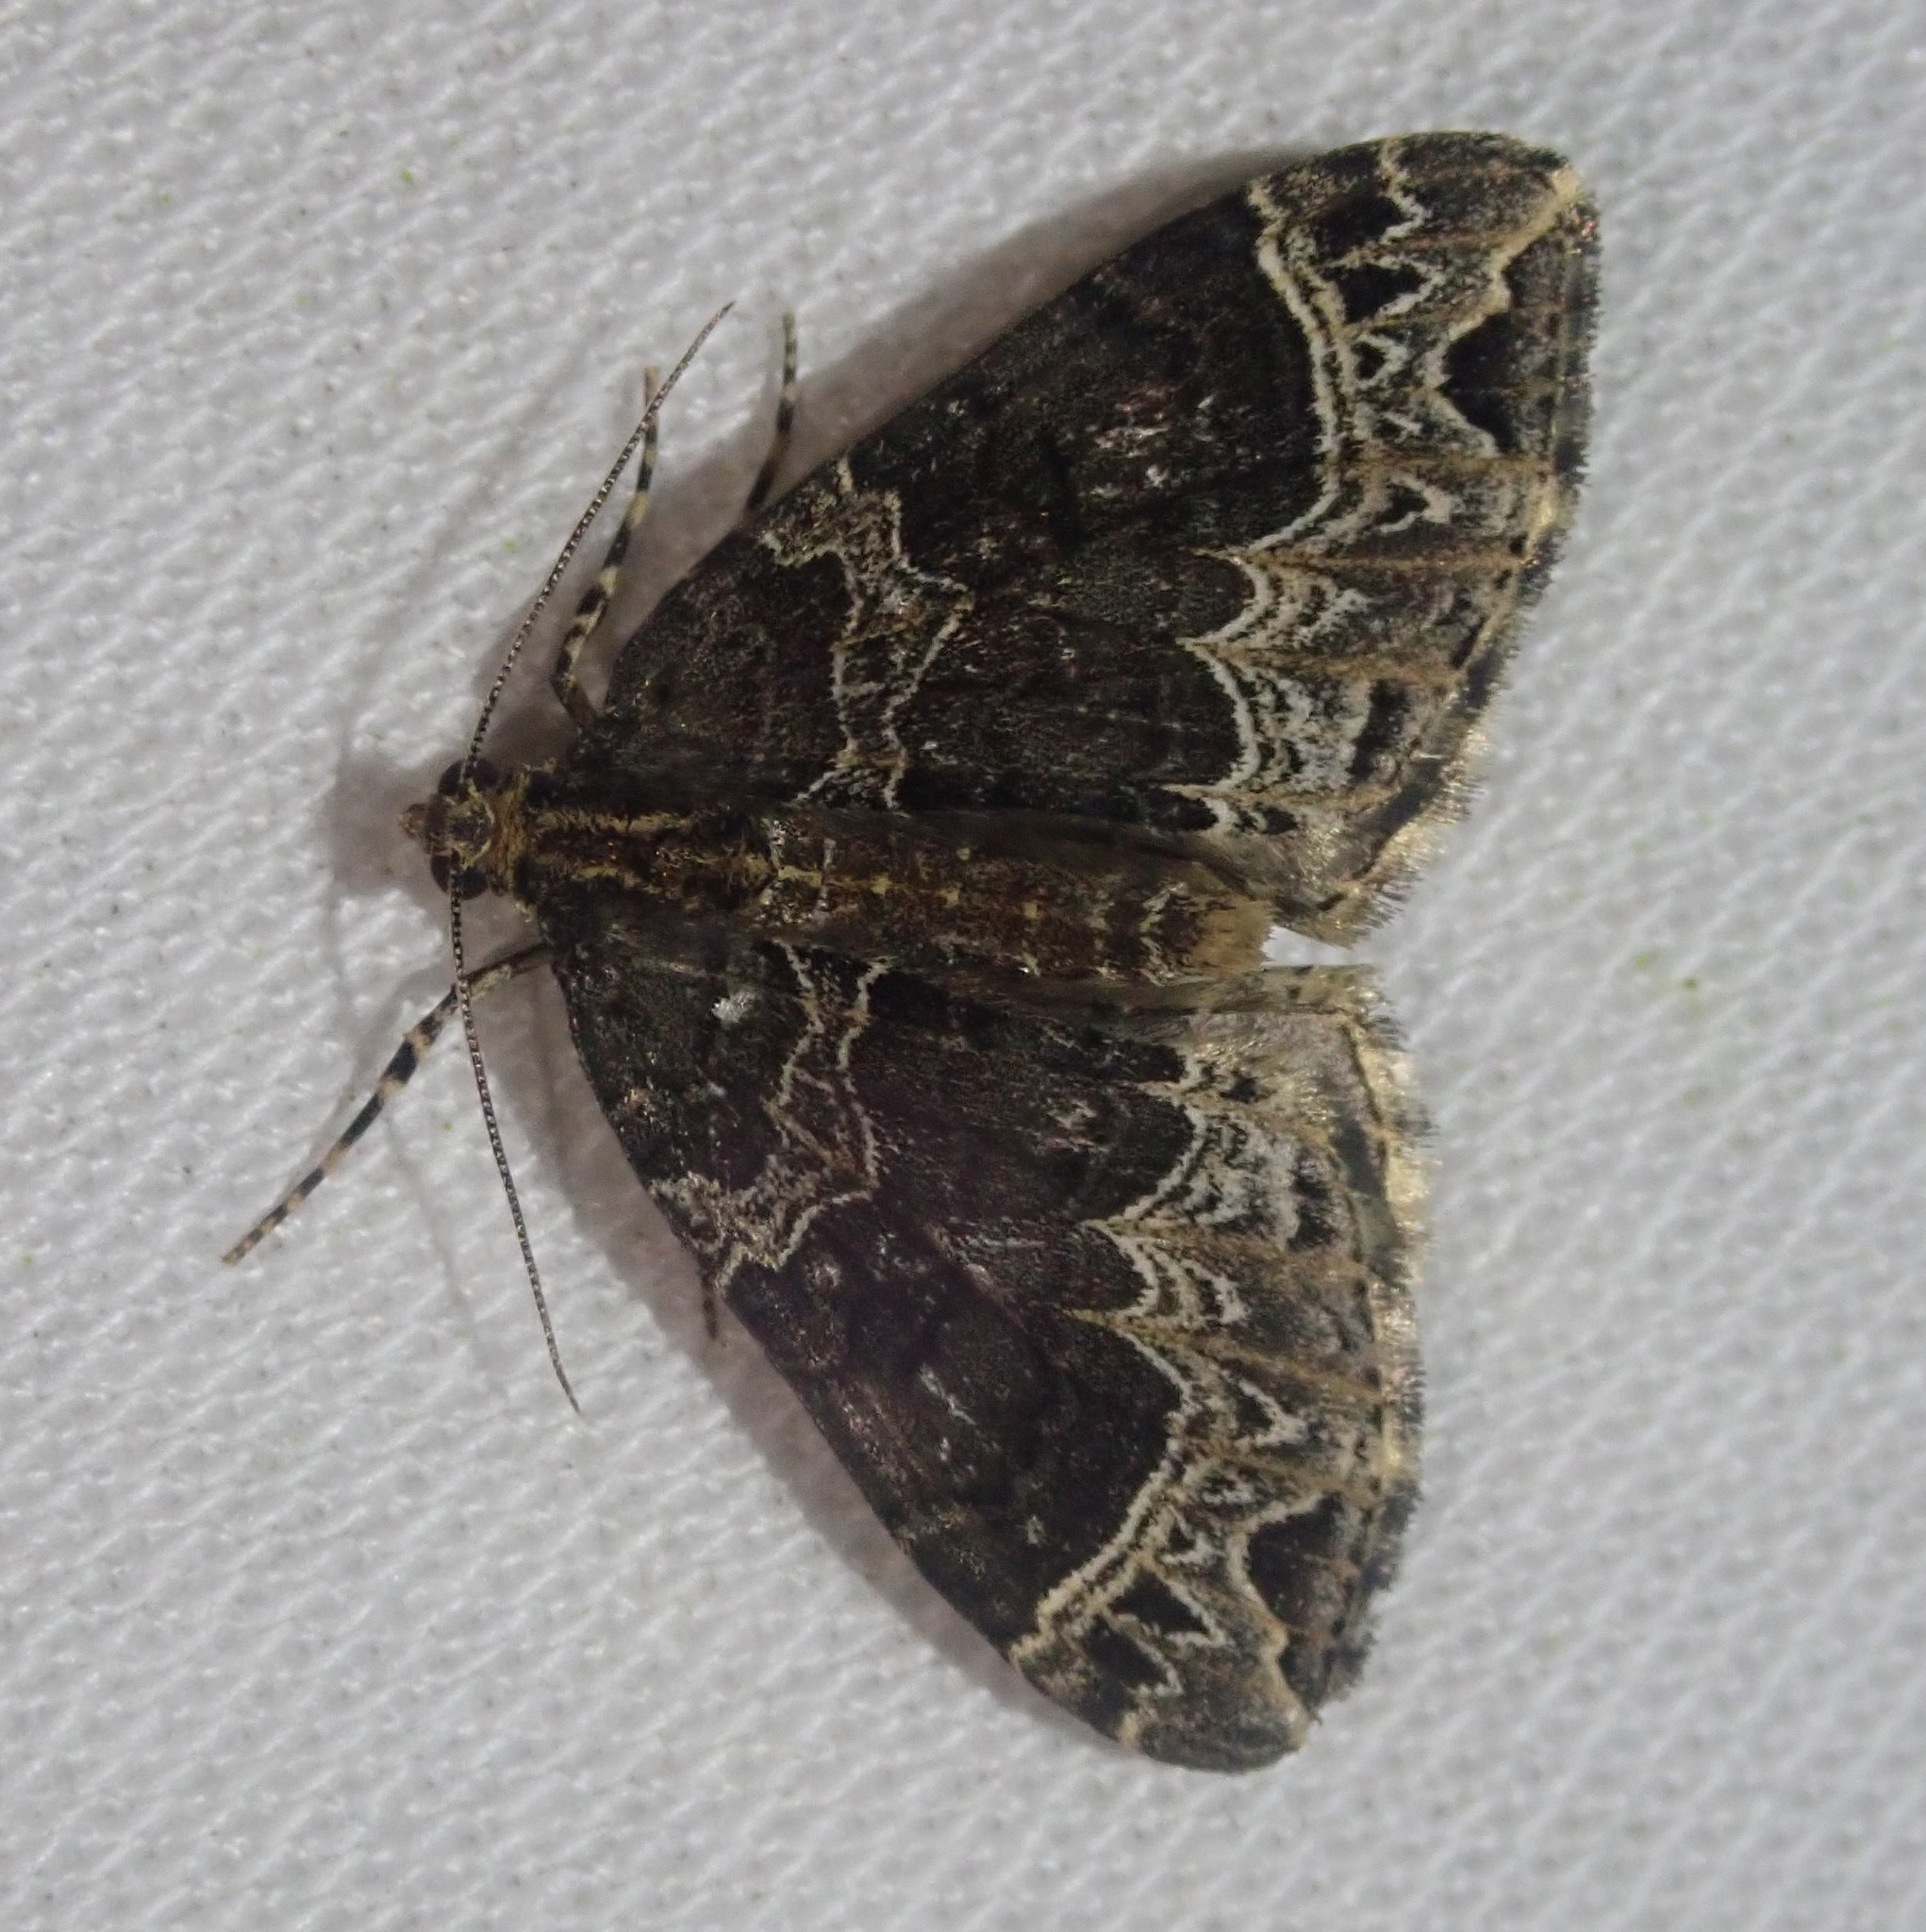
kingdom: Animalia
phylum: Arthropoda
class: Insecta
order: Lepidoptera
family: Geometridae
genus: Ecliptopera
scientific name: Ecliptopera silaceata
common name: Small phoenix
